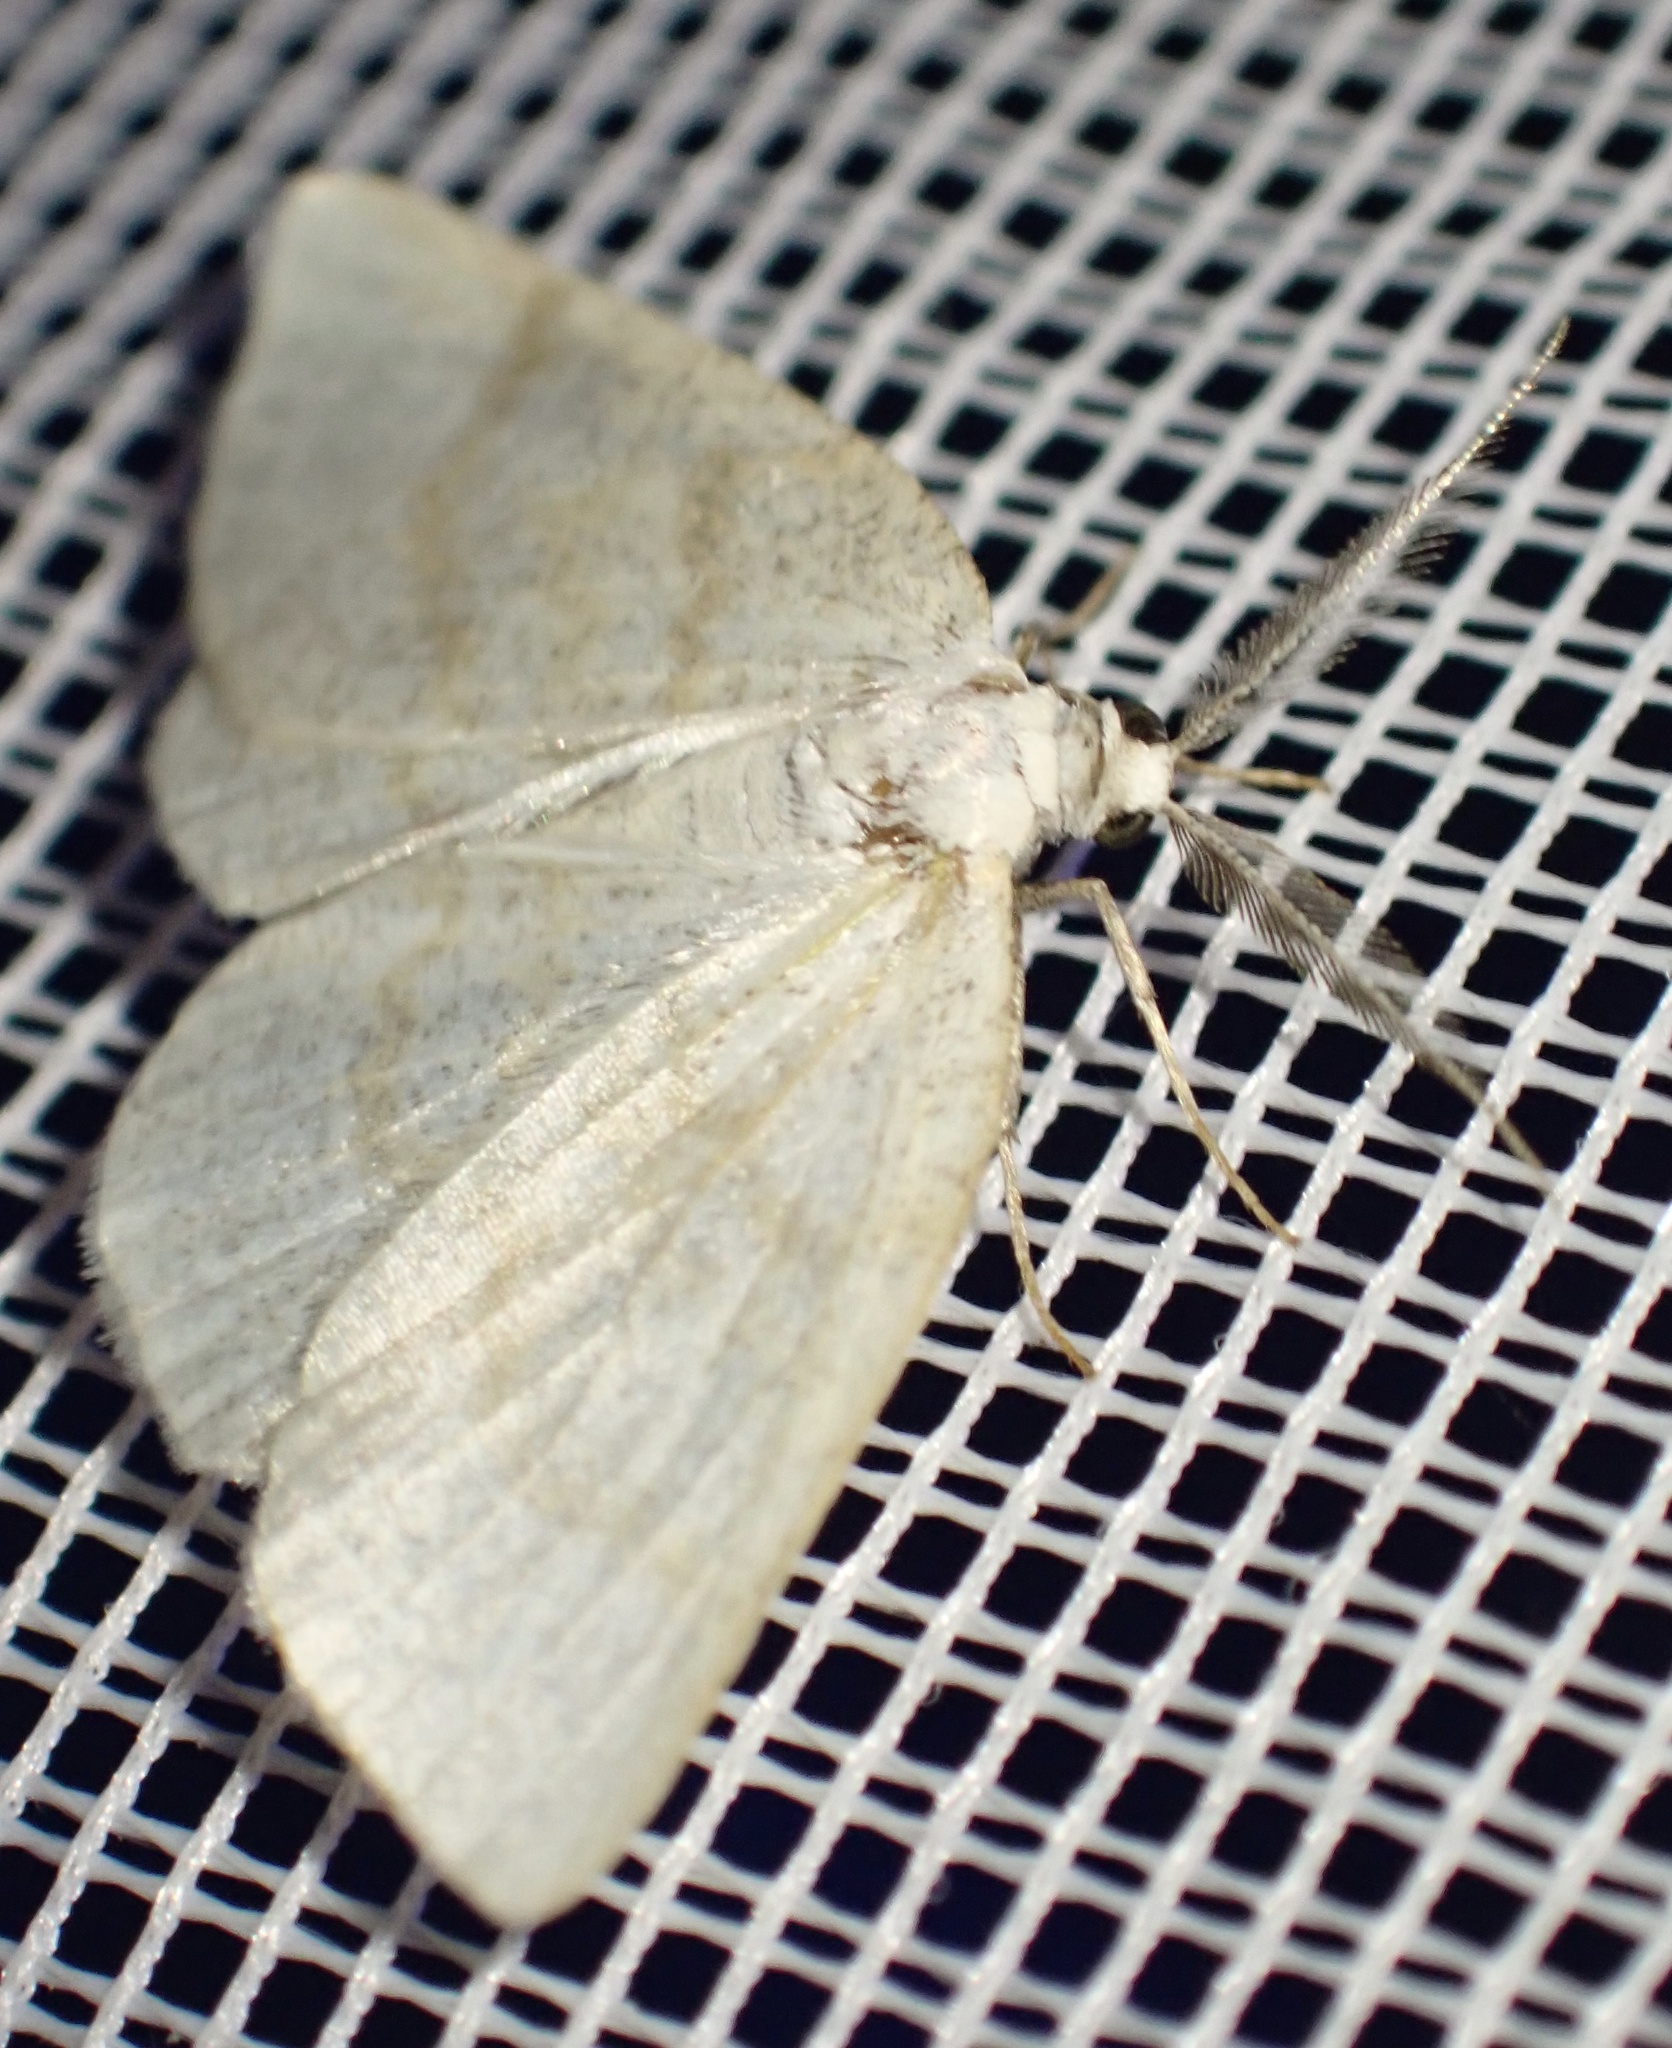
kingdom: Animalia
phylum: Arthropoda
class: Insecta
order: Lepidoptera
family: Geometridae
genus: Cabera
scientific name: Cabera exanthemata
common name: Common wave
